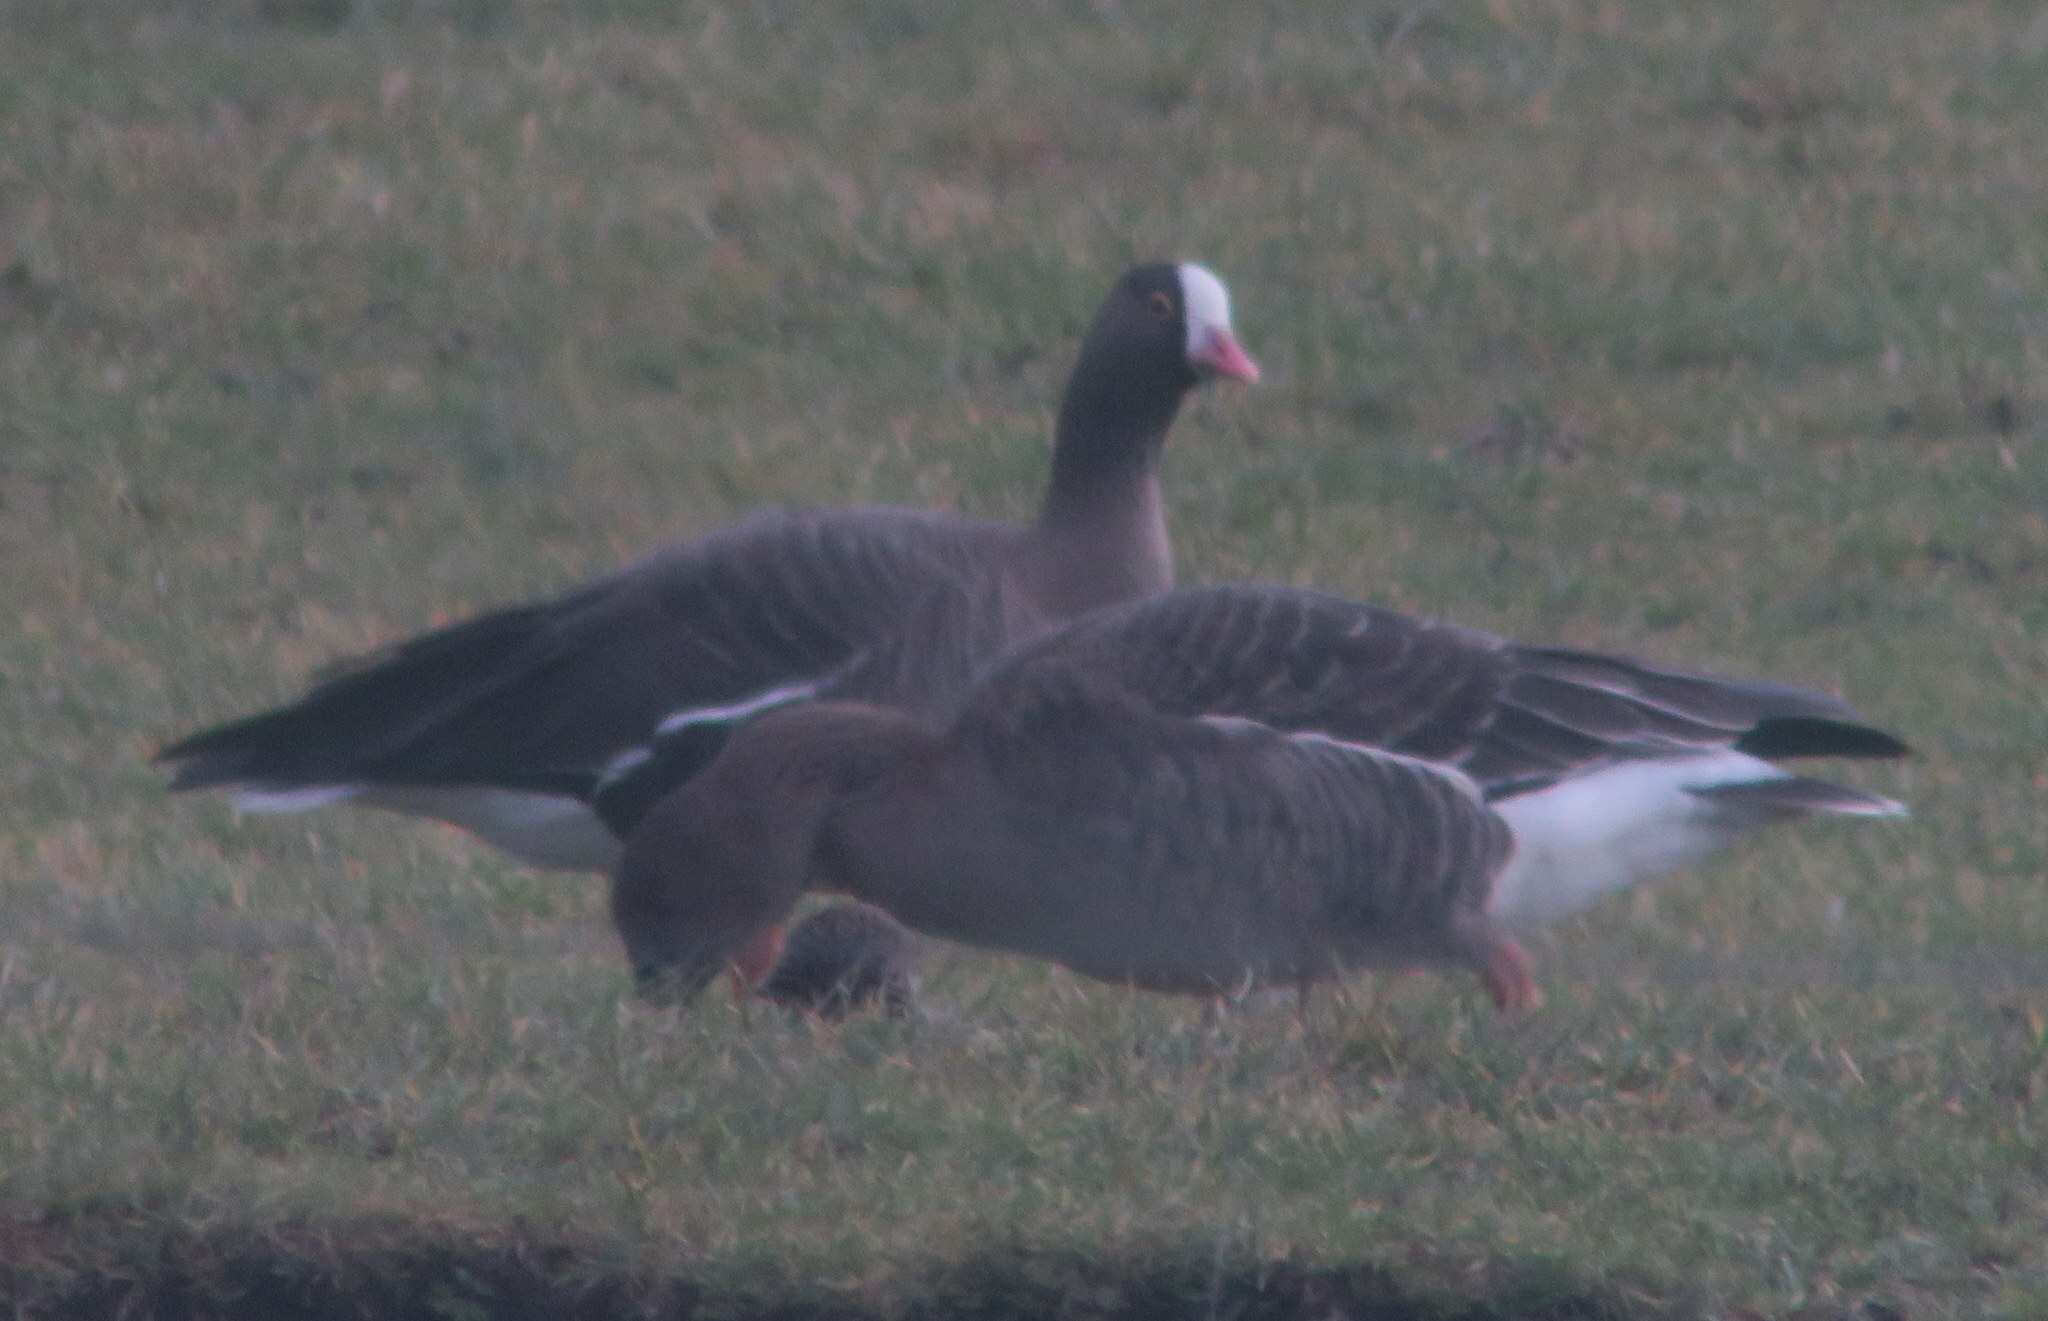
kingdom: Animalia
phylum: Chordata
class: Aves
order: Anseriformes
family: Anatidae
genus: Anser
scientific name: Anser erythropus
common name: Lesser white-fronted goose
